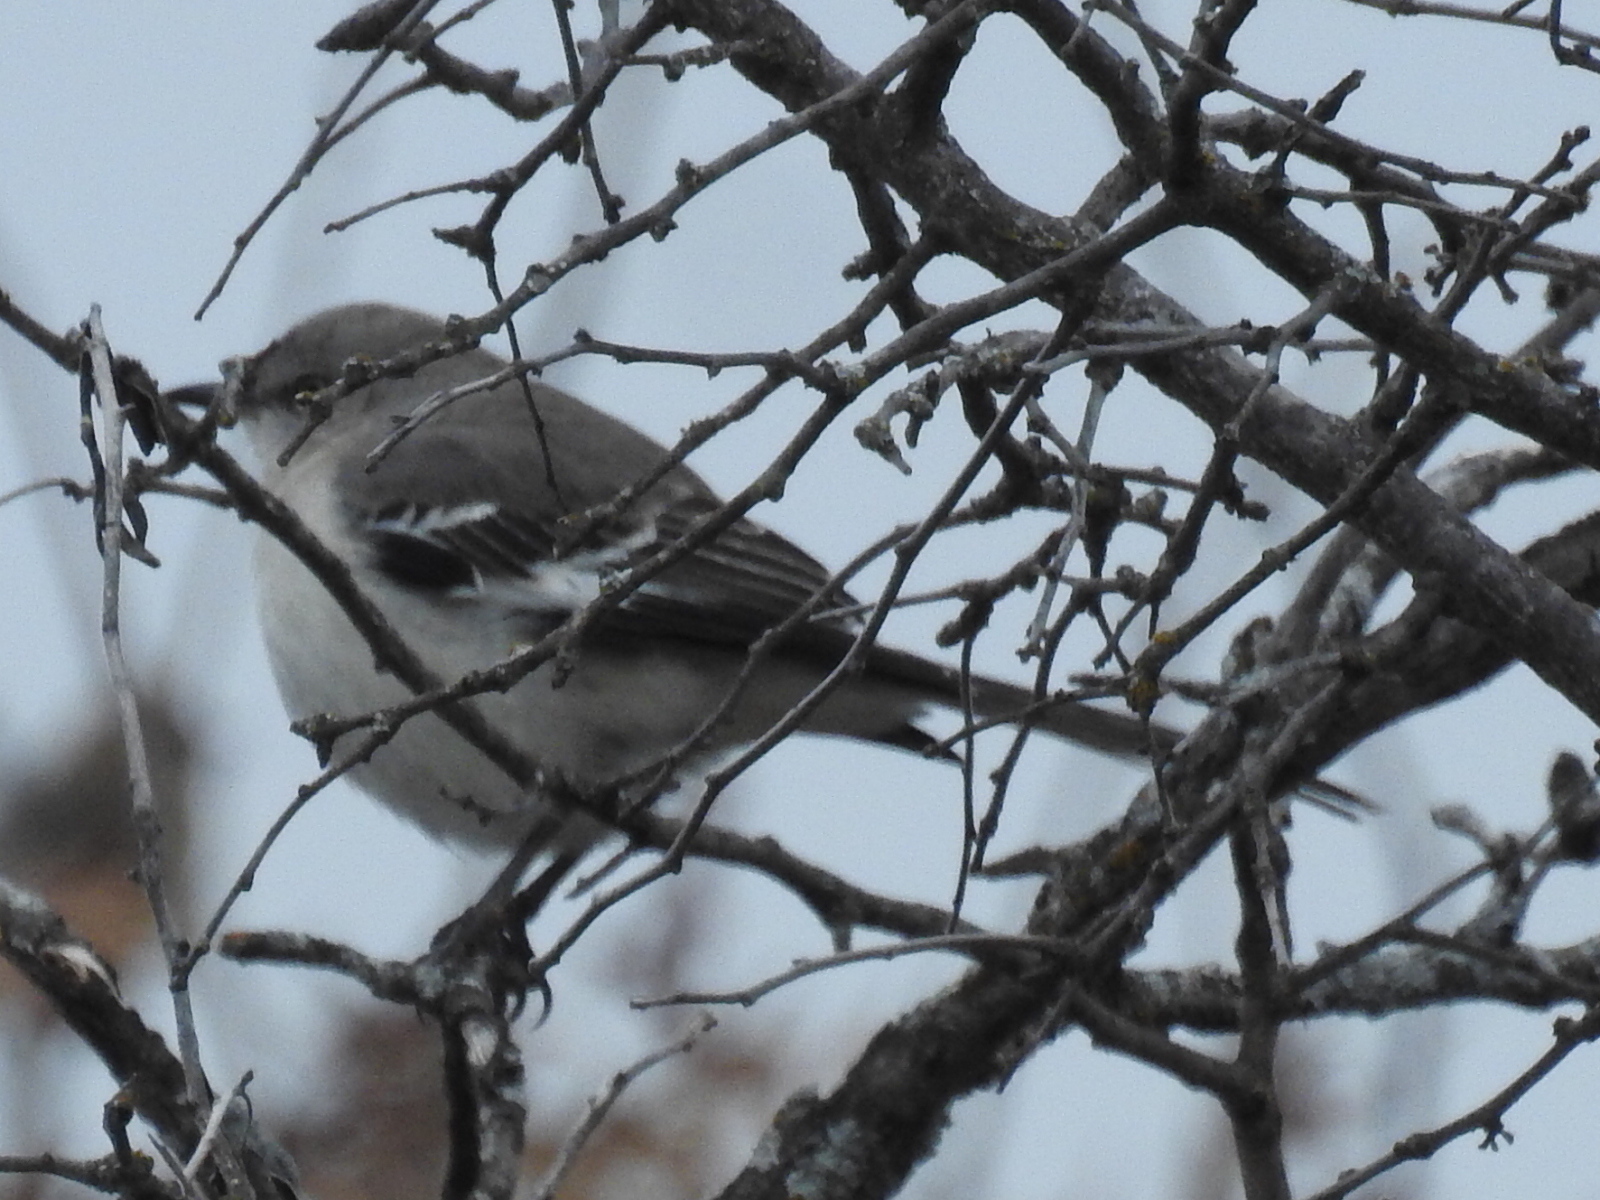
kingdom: Animalia
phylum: Chordata
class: Aves
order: Passeriformes
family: Mimidae
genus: Mimus
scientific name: Mimus polyglottos
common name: Northern mockingbird
